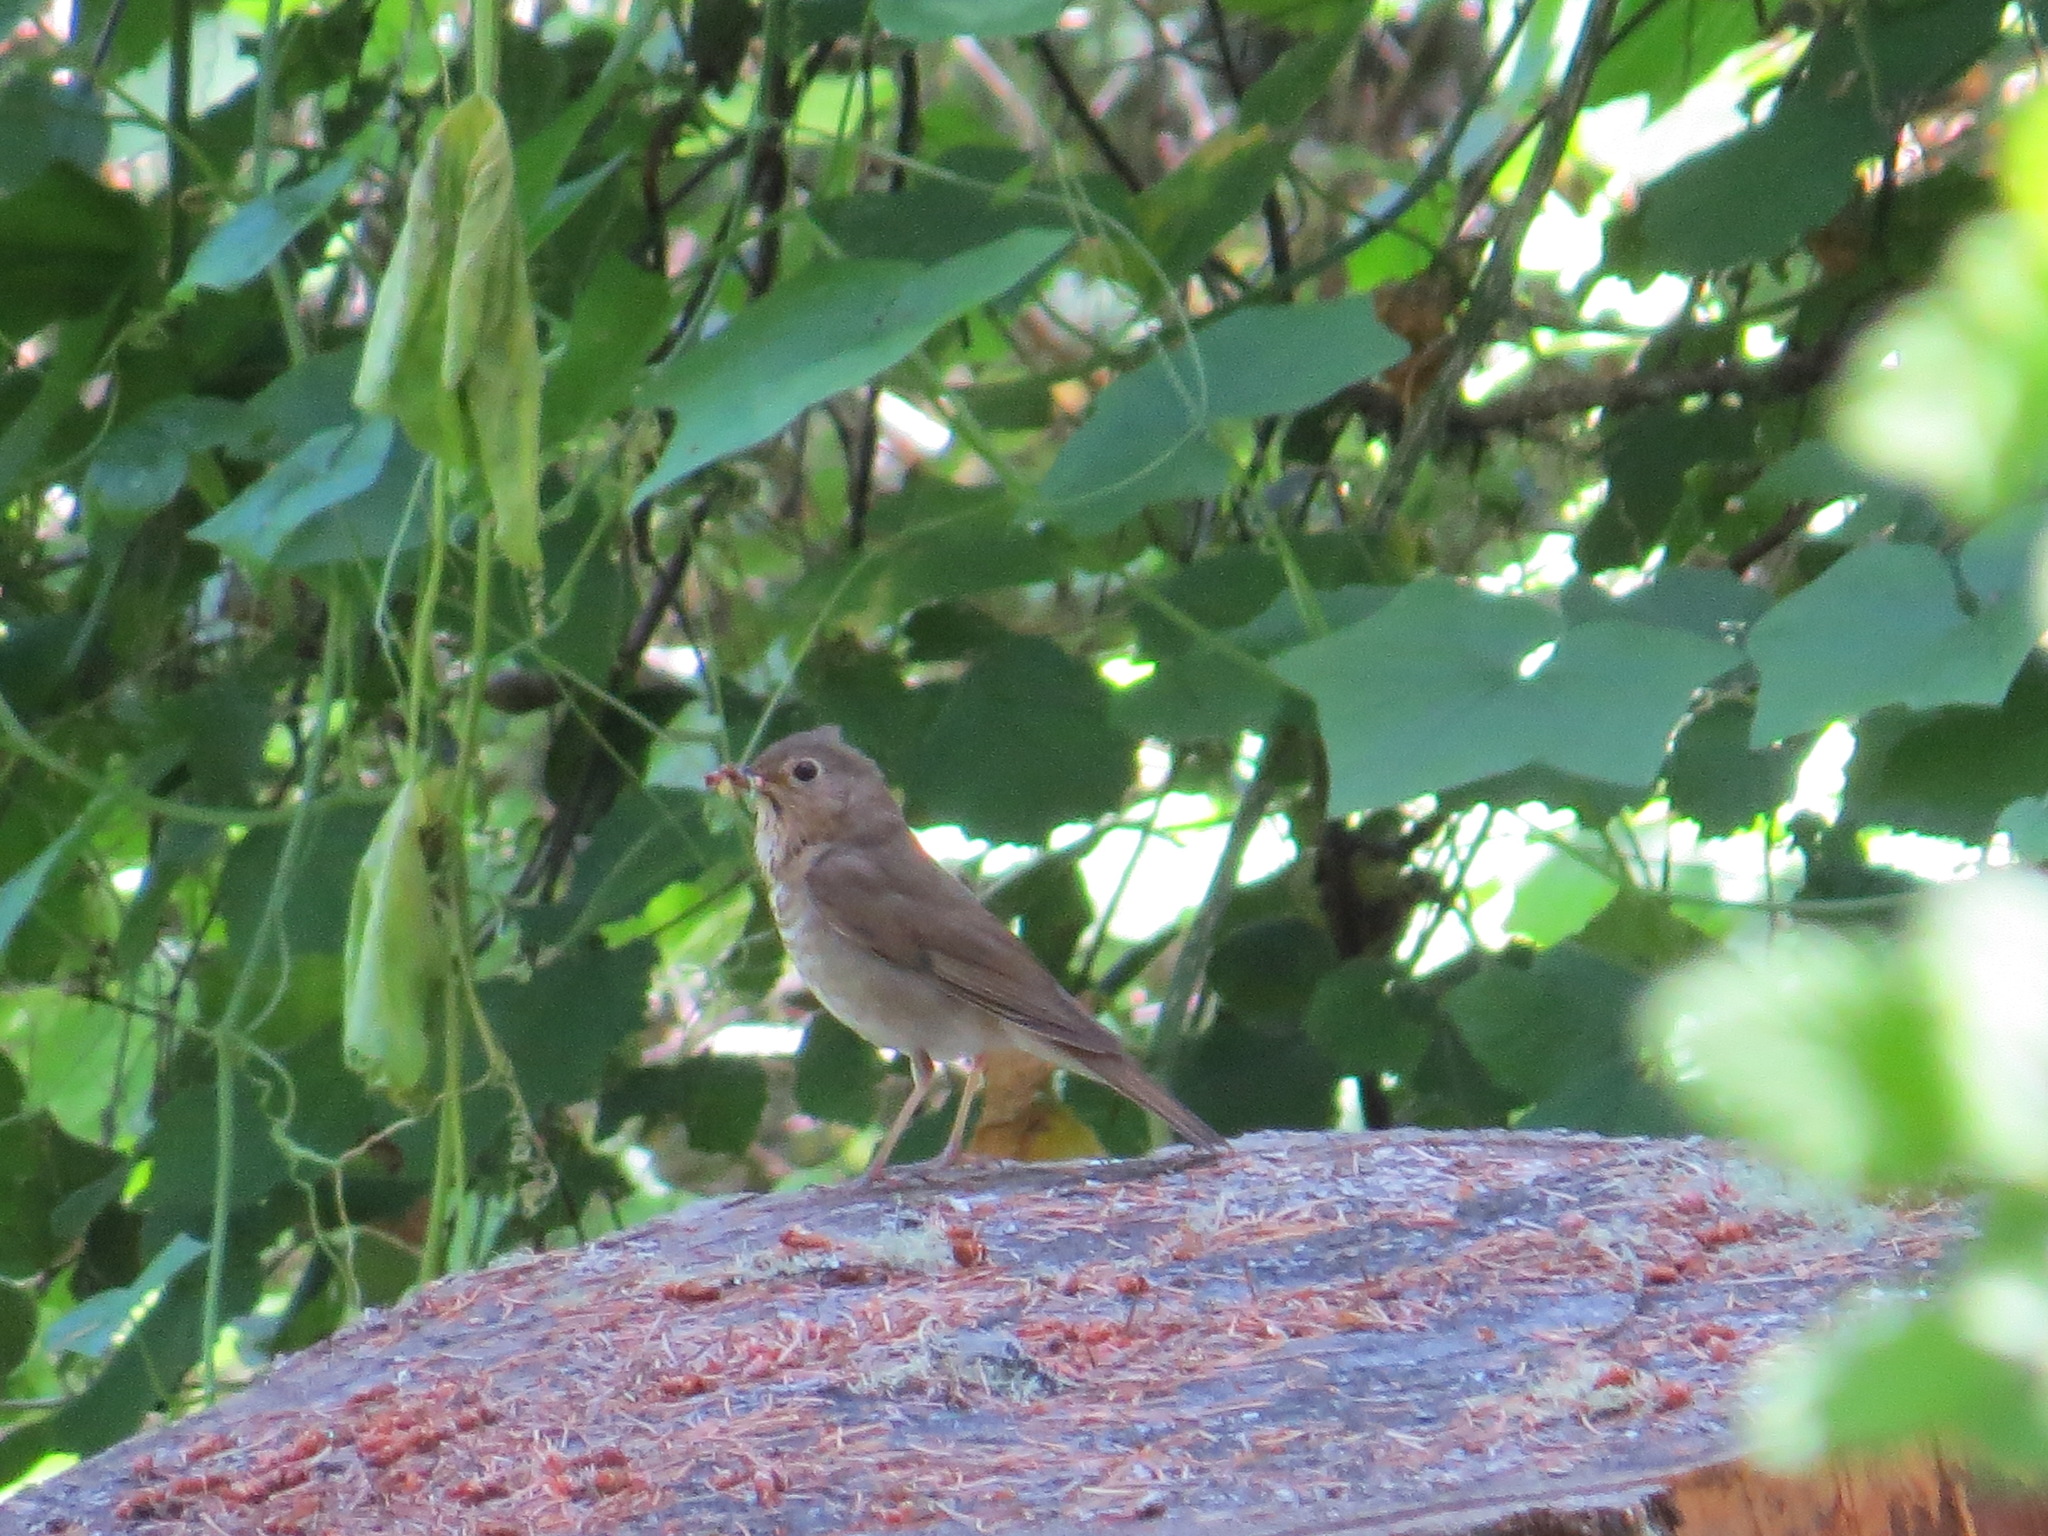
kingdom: Animalia
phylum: Chordata
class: Aves
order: Passeriformes
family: Turdidae
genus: Catharus
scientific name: Catharus ustulatus
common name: Swainson's thrush
